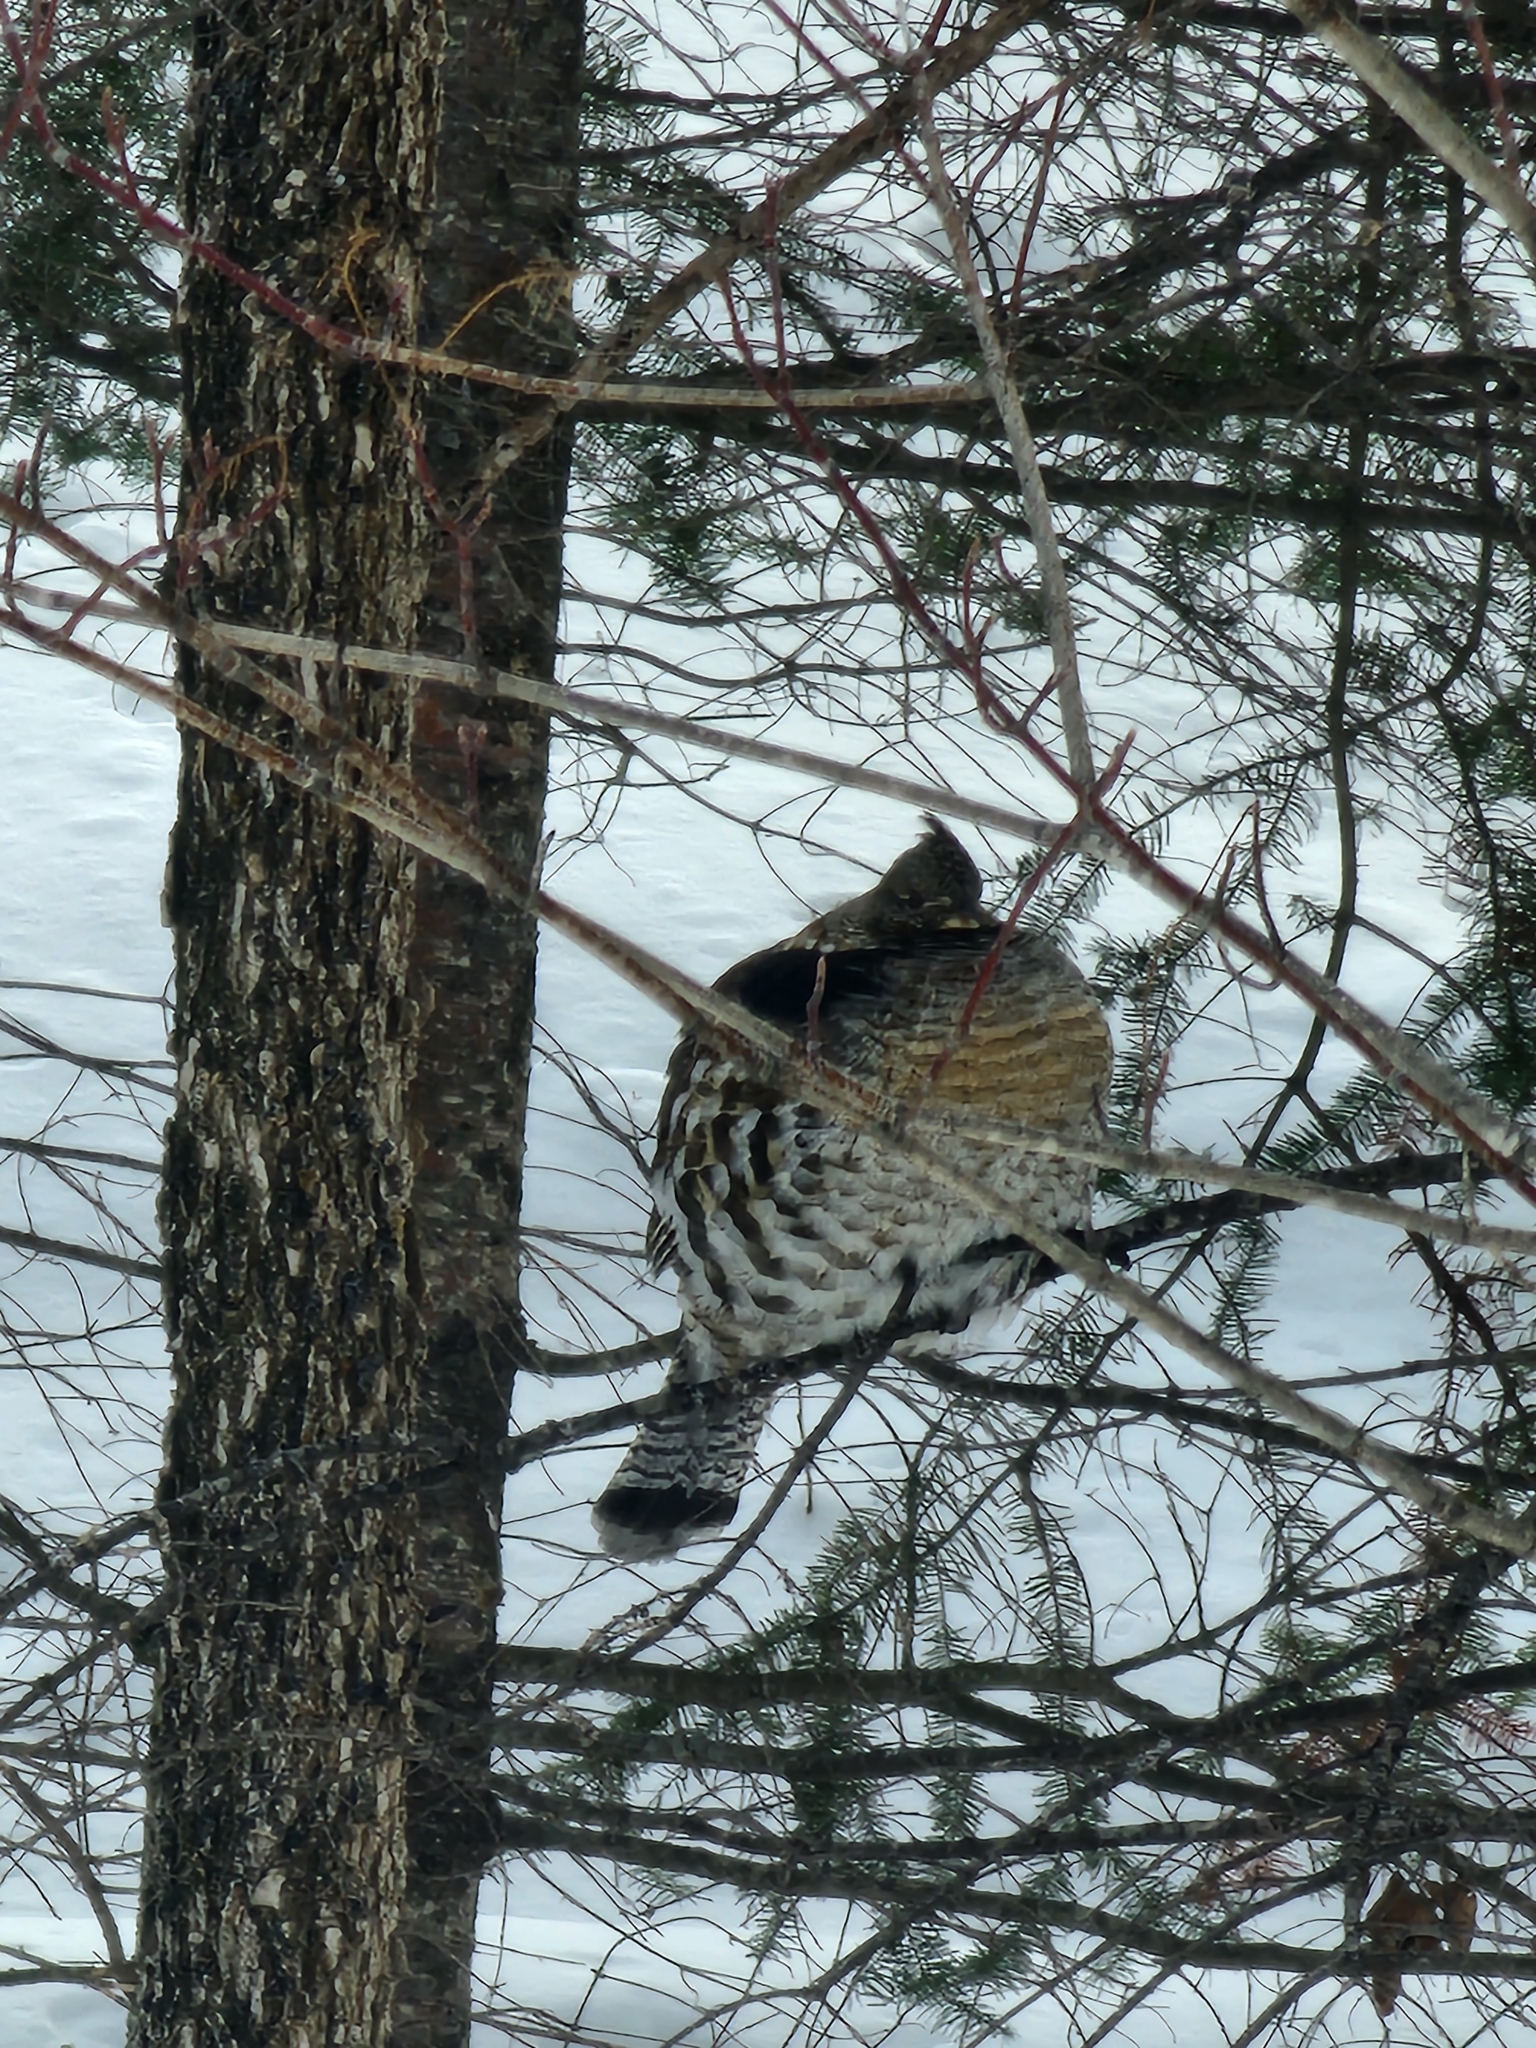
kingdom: Animalia
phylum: Chordata
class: Aves
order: Galliformes
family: Phasianidae
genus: Bonasa
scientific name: Bonasa umbellus
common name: Ruffed grouse
